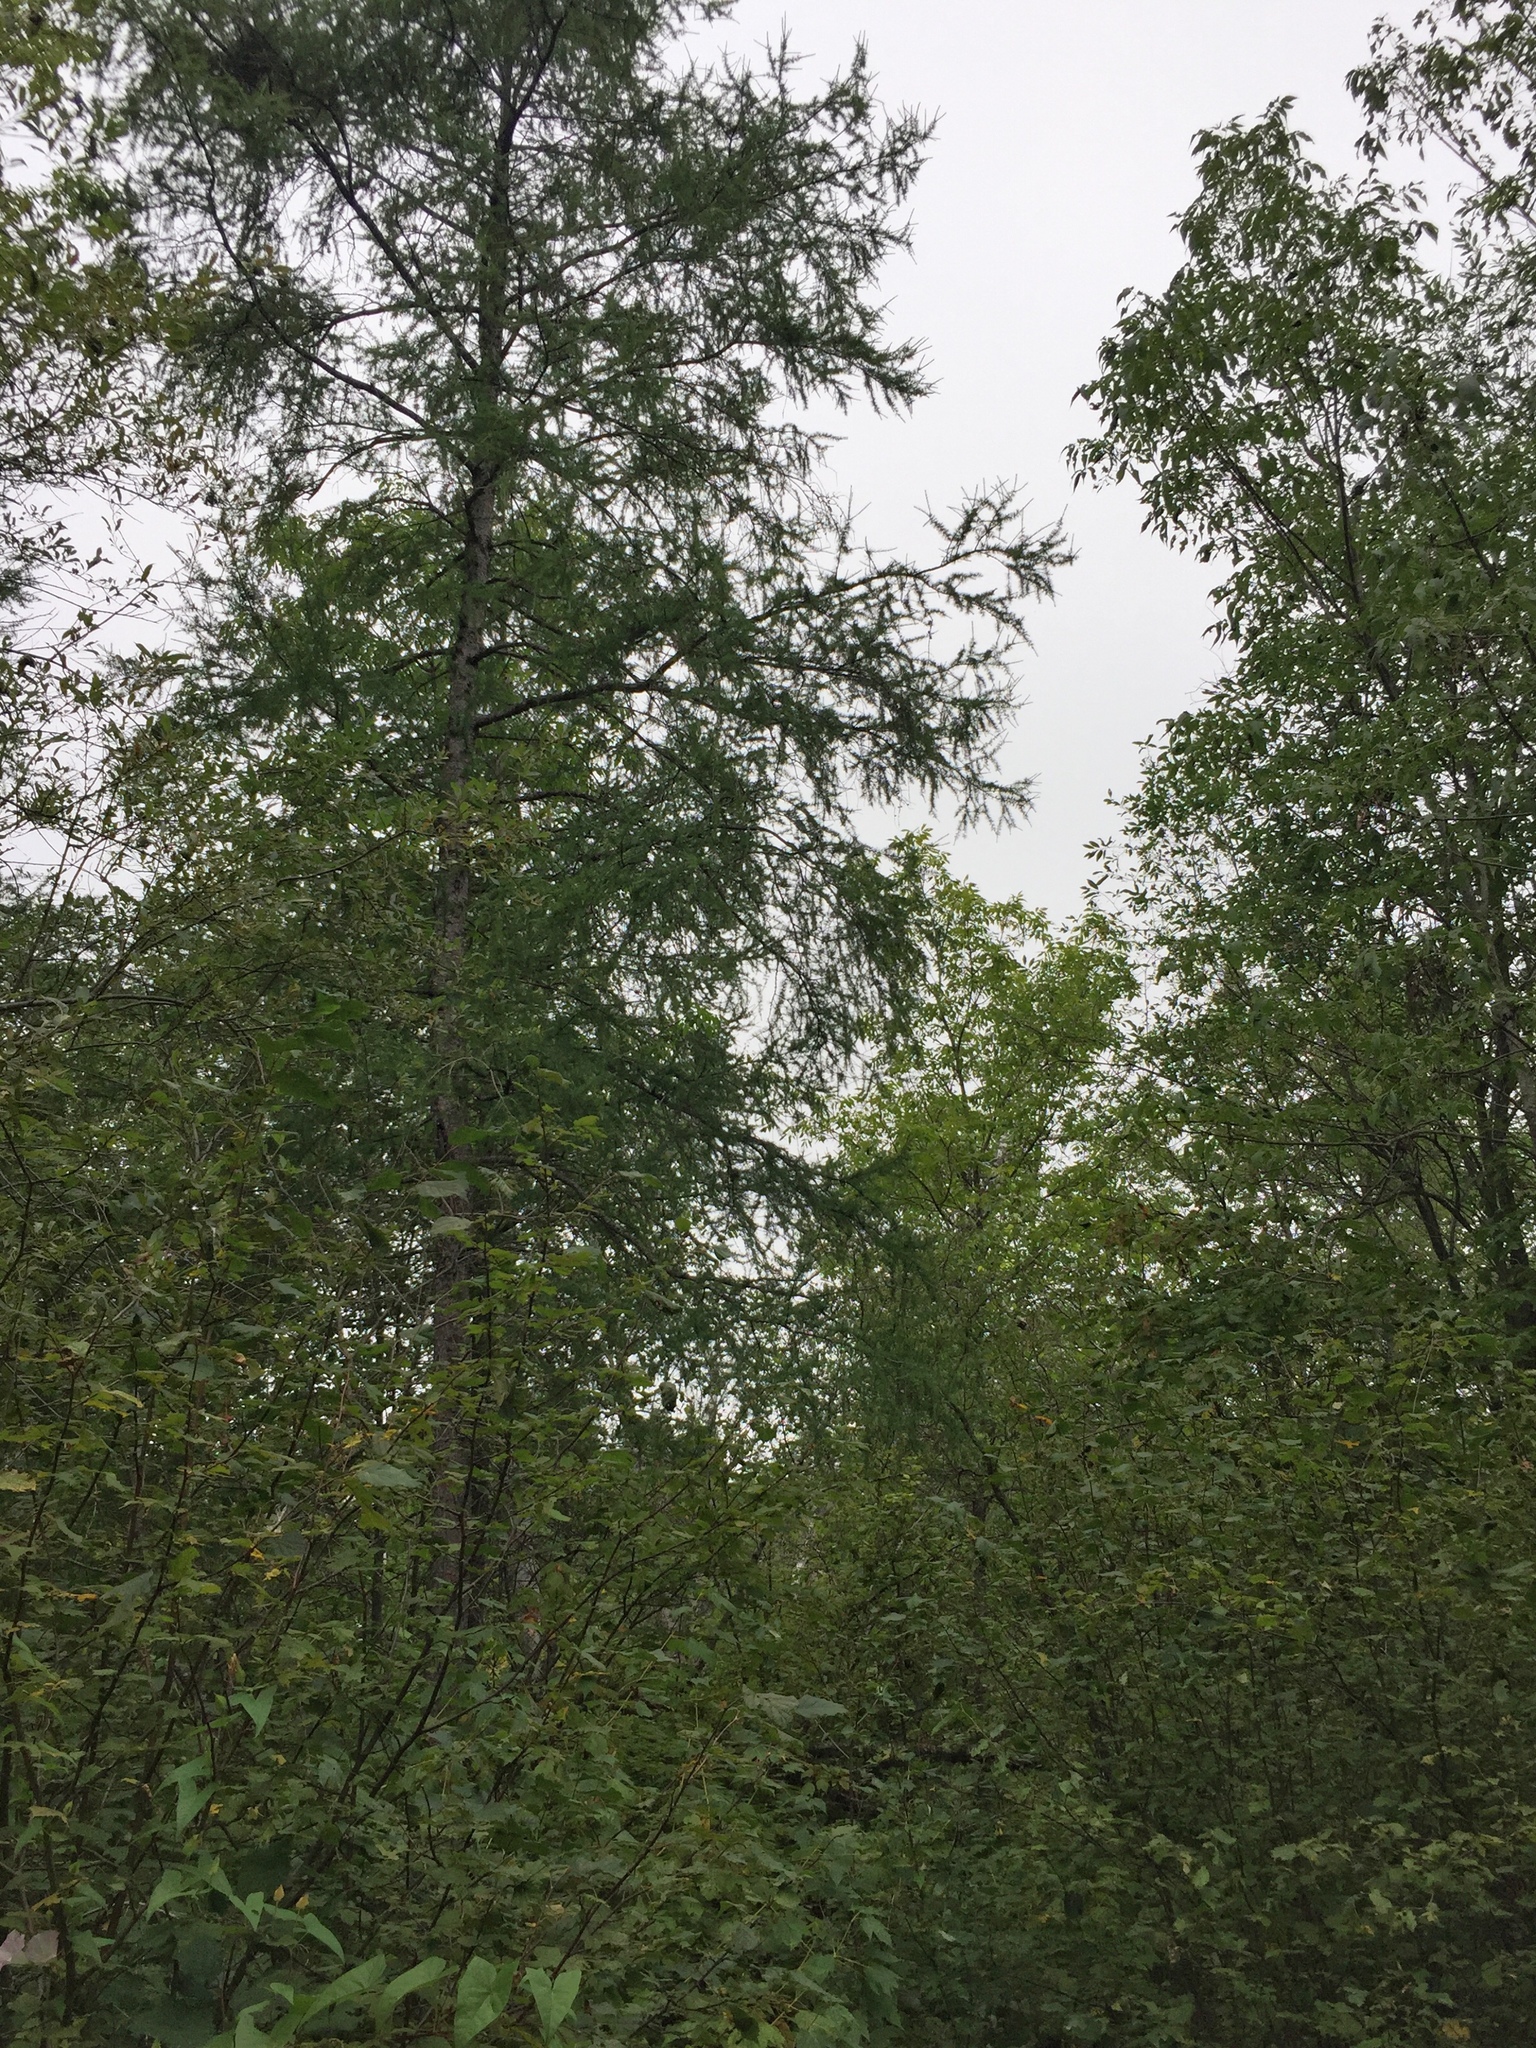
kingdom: Plantae
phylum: Tracheophyta
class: Pinopsida
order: Pinales
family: Pinaceae
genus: Larix
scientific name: Larix laricina
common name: American larch
